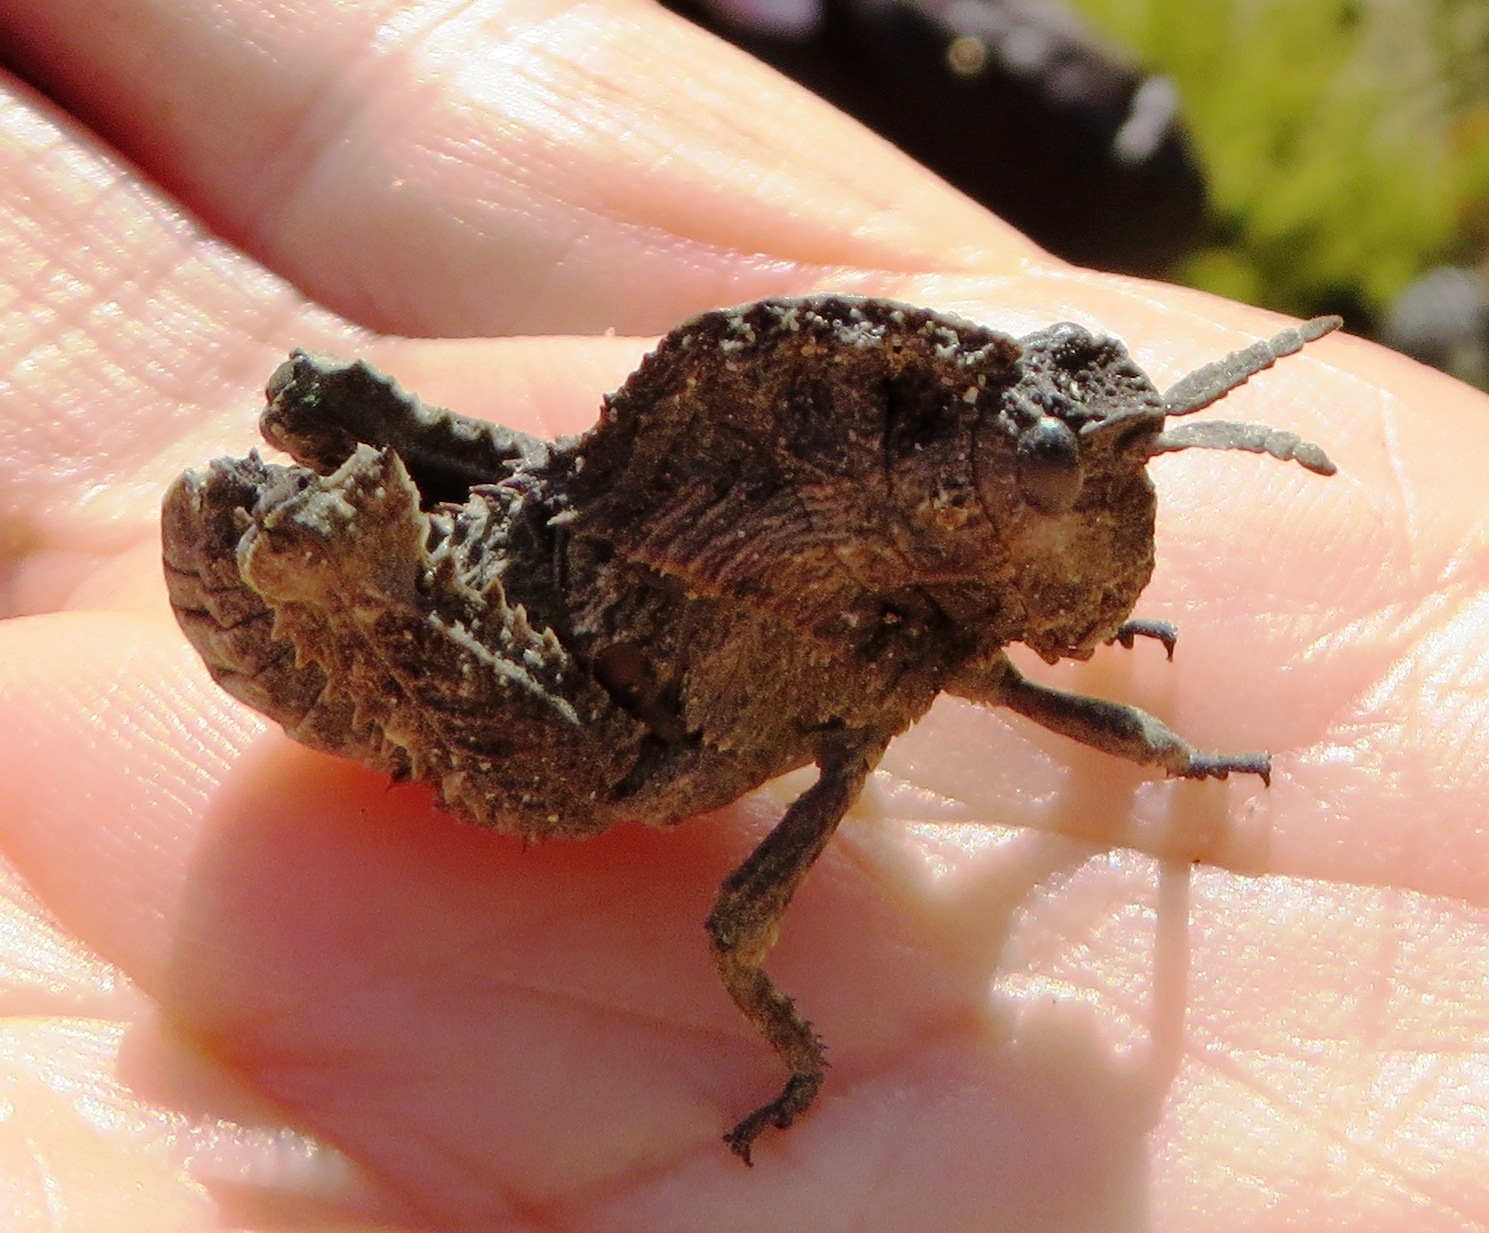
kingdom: Animalia
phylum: Arthropoda
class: Insecta
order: Orthoptera
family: Pamphagidae
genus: Porthetis
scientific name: Porthetis carinata
